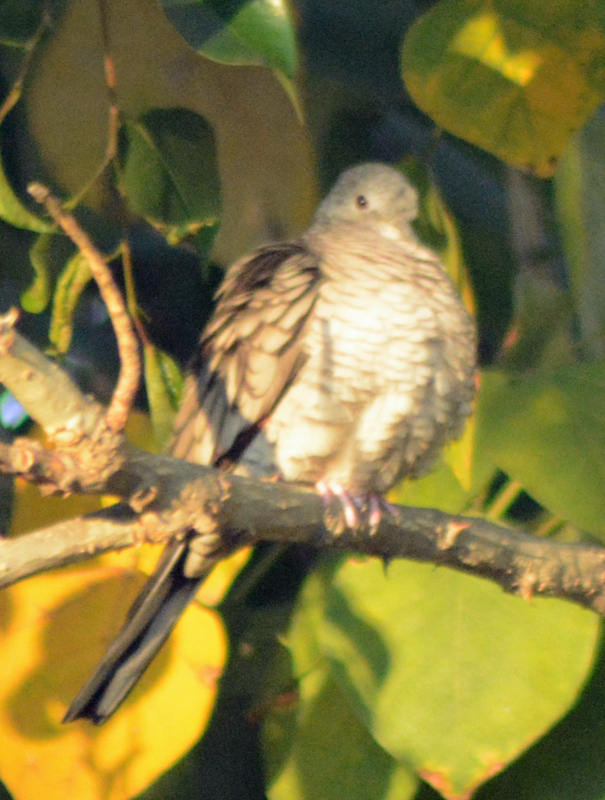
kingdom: Animalia
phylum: Chordata
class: Aves
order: Columbiformes
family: Columbidae
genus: Columbina
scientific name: Columbina inca
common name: Inca dove
